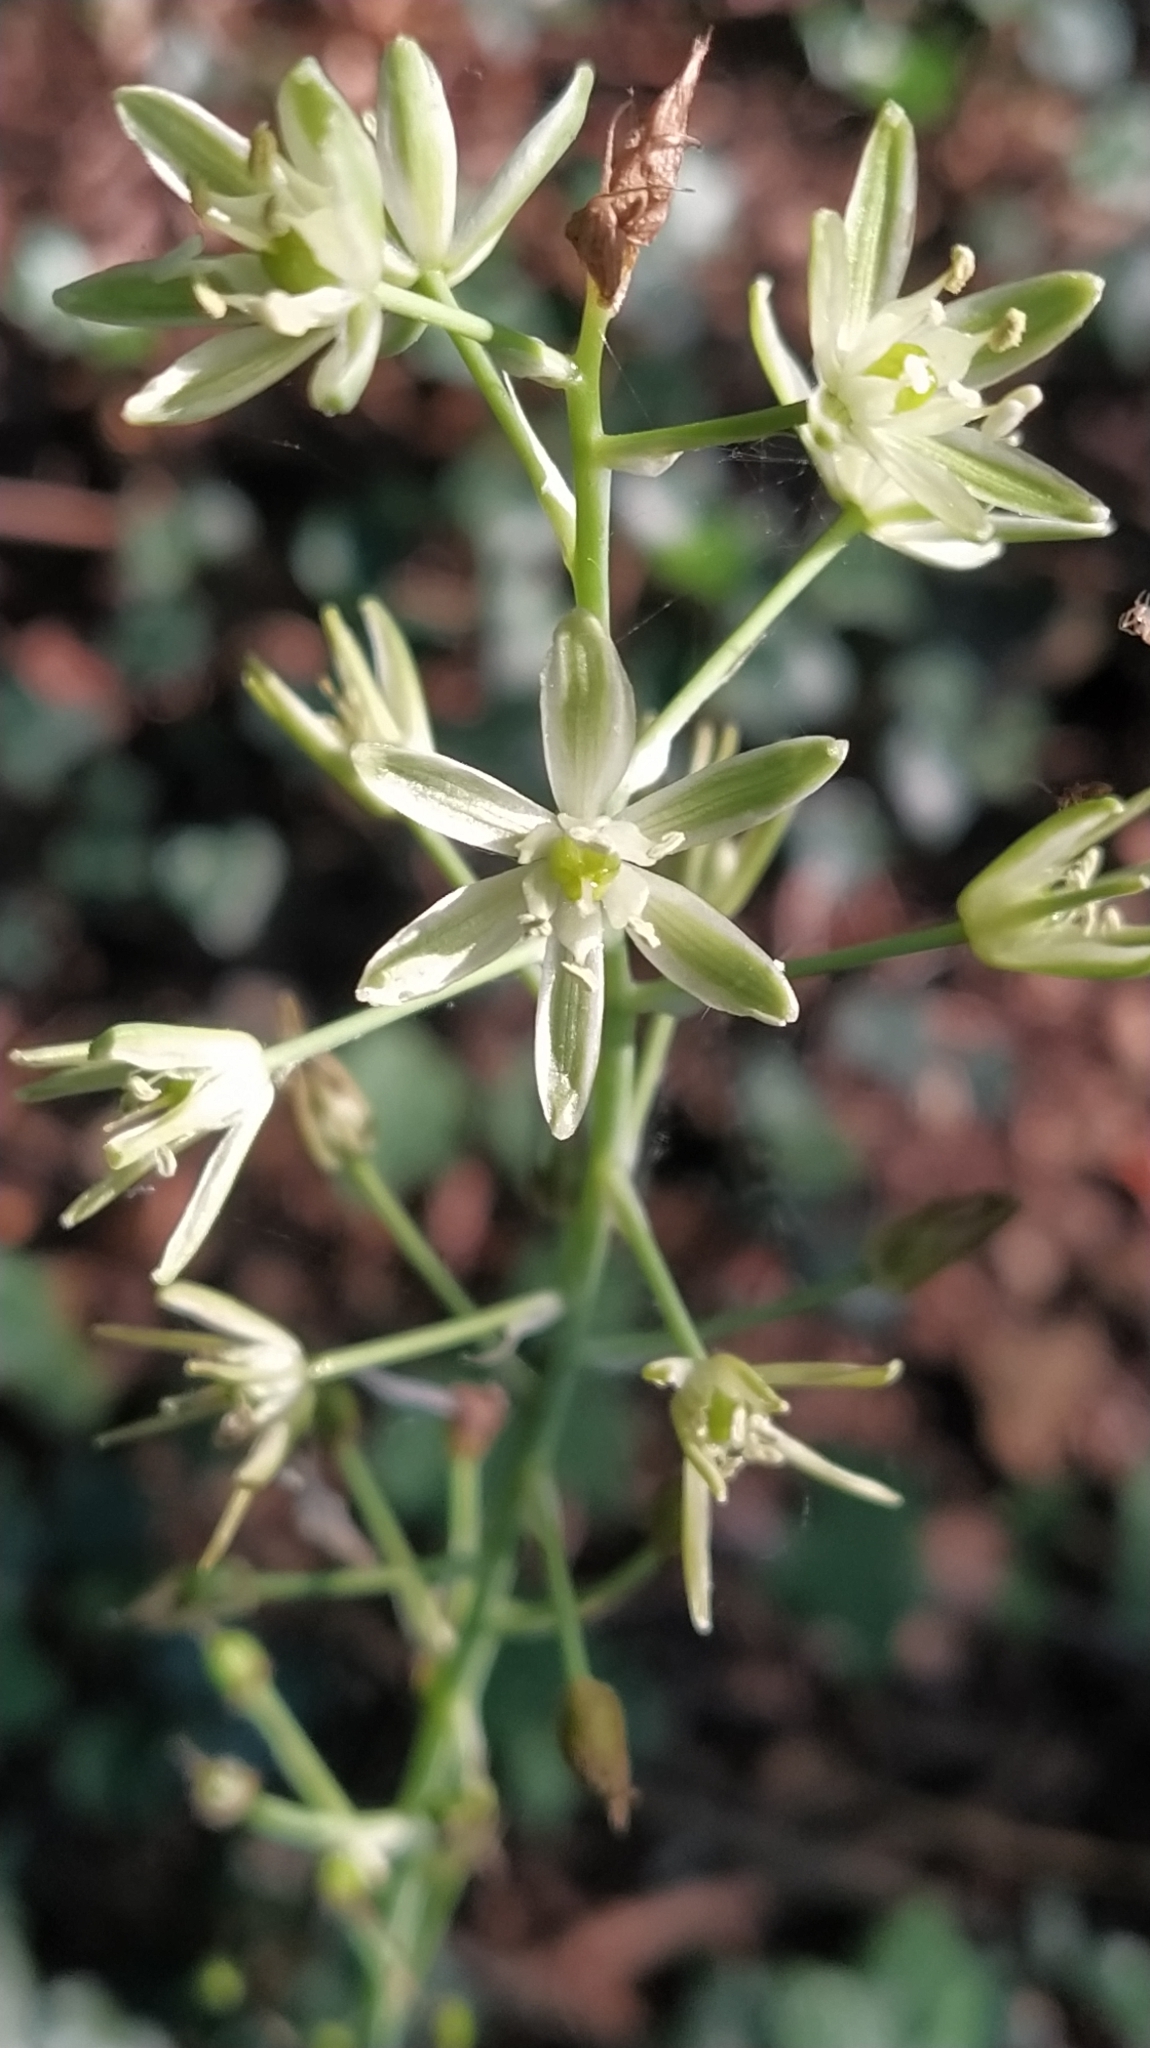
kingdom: Plantae
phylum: Tracheophyta
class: Liliopsida
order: Asparagales
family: Asparagaceae
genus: Ornithogalum
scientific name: Ornithogalum pyrenaicum
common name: Spiked star-of-bethlehem
